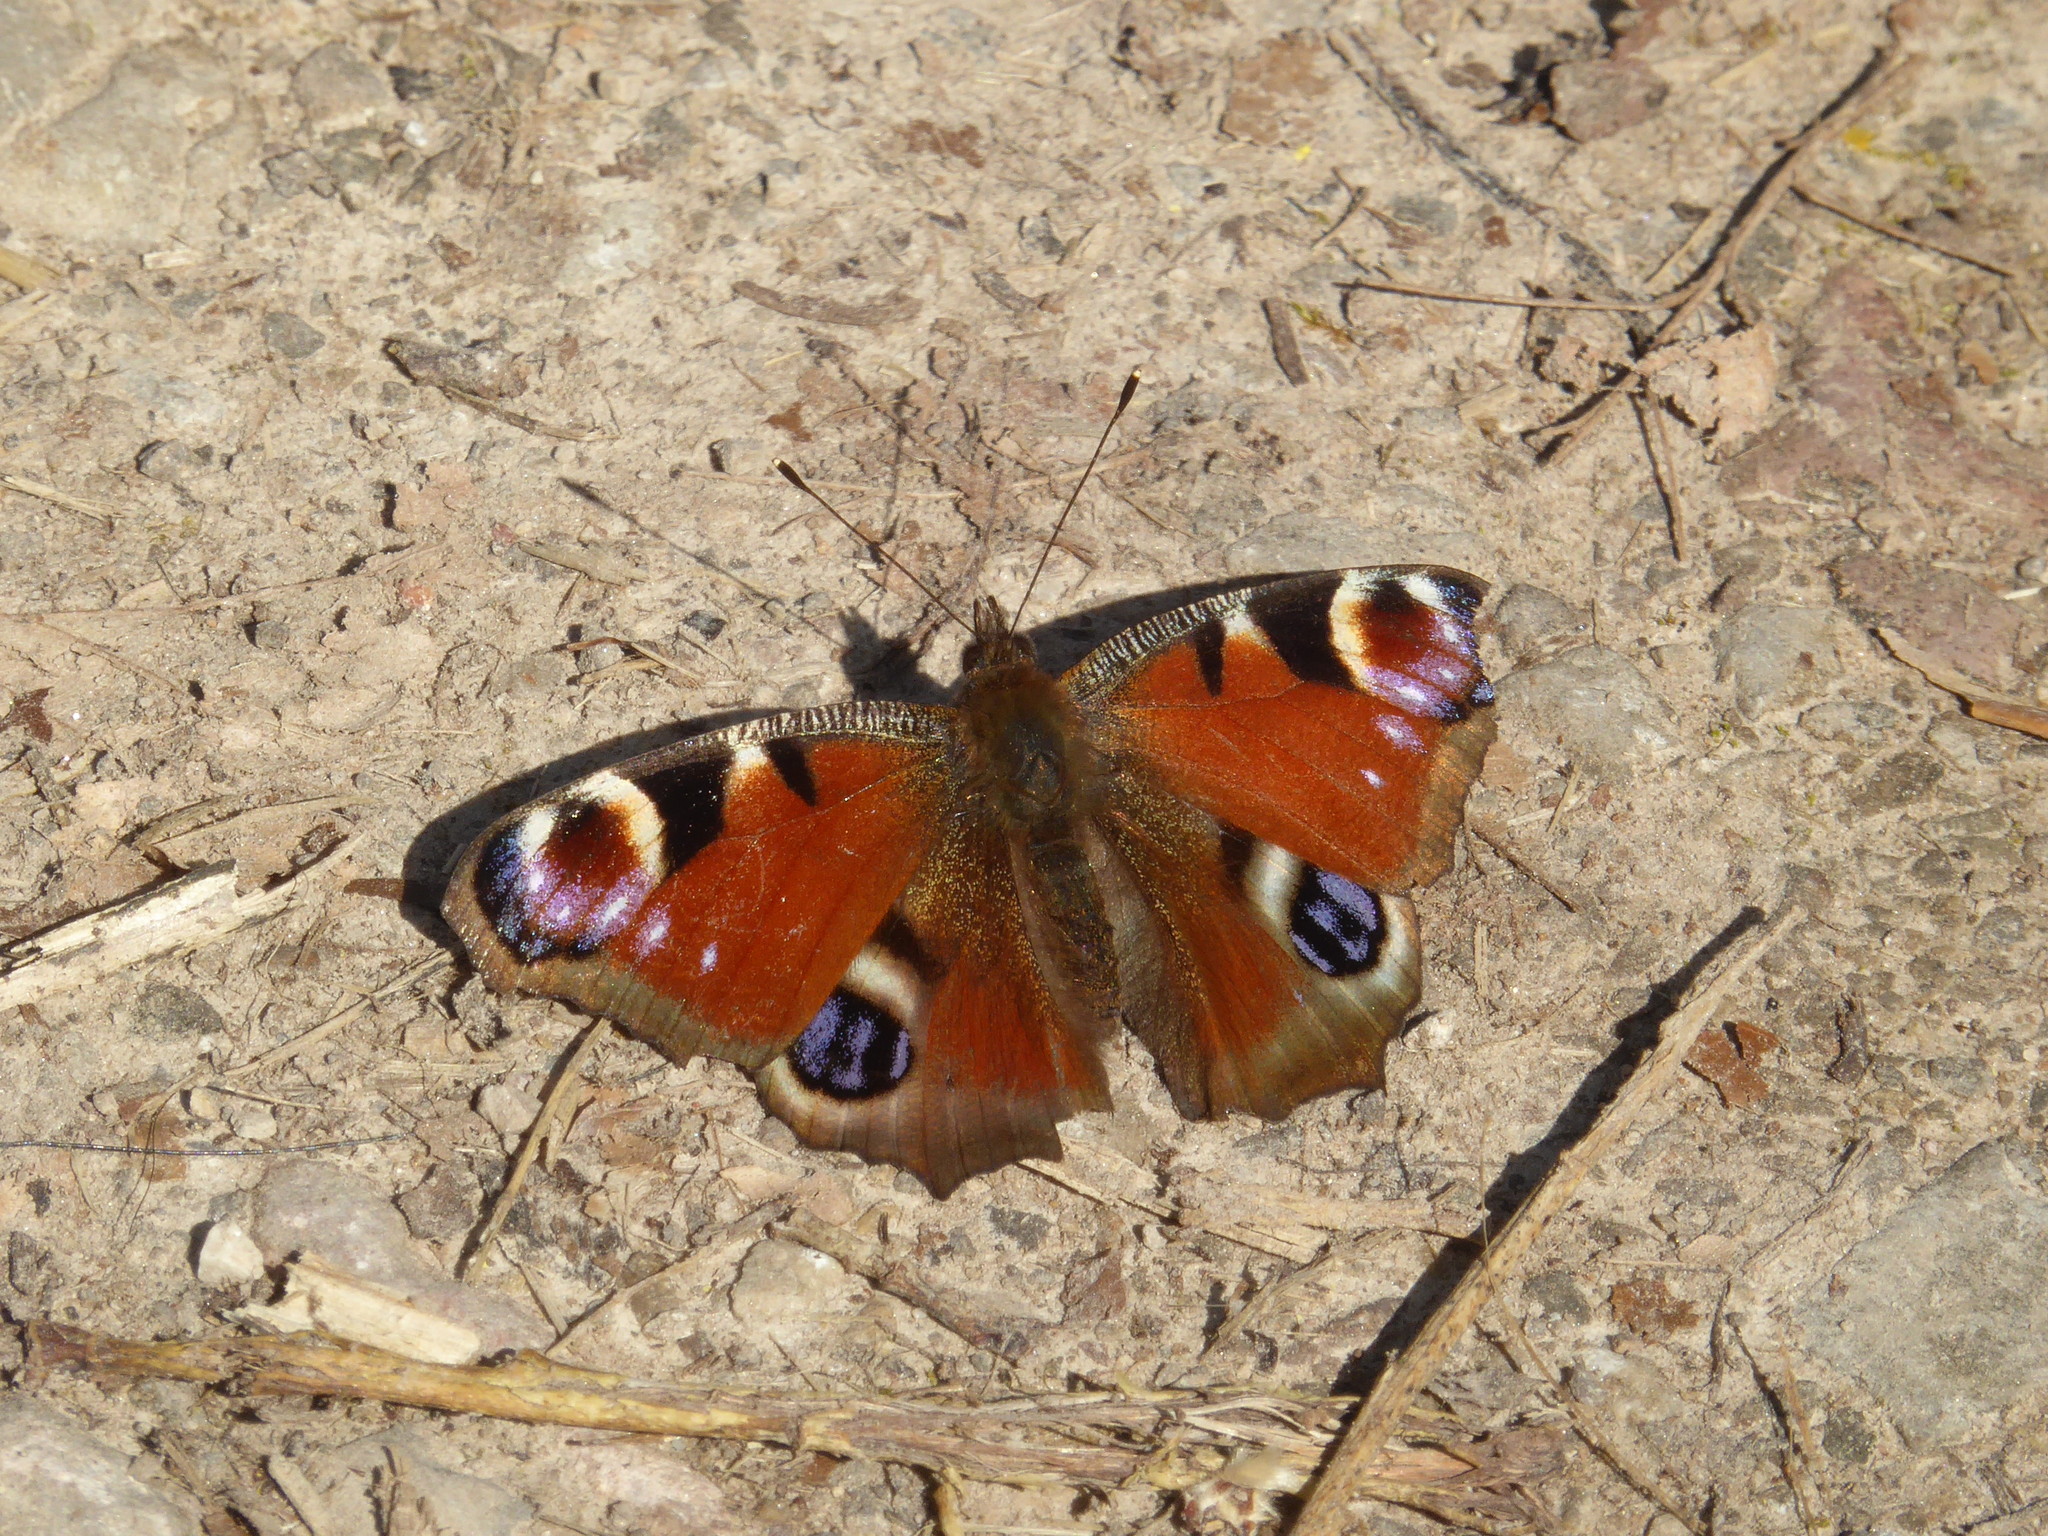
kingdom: Animalia
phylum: Arthropoda
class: Insecta
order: Lepidoptera
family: Nymphalidae
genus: Aglais
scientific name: Aglais io
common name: Peacock
